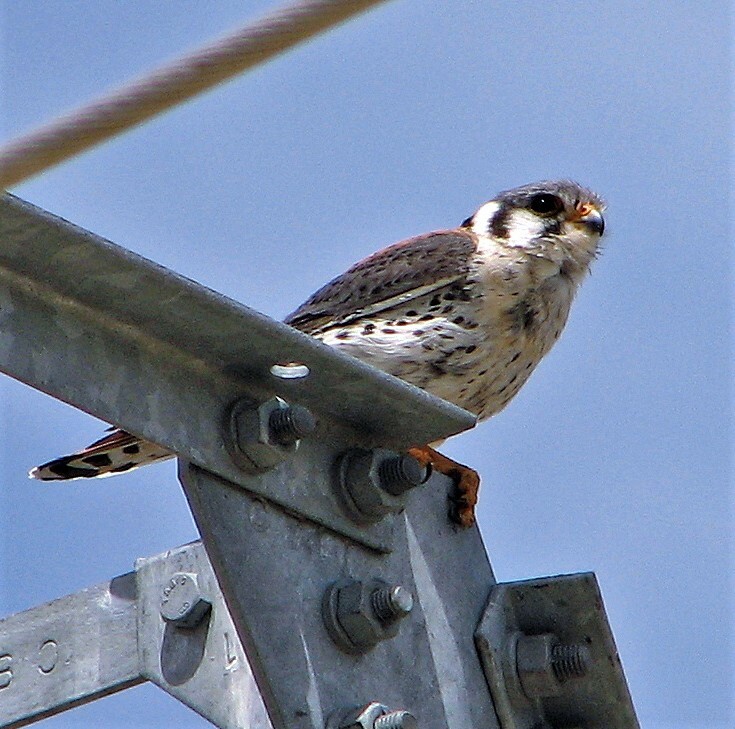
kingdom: Animalia
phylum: Chordata
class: Aves
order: Falconiformes
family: Falconidae
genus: Falco
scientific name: Falco sparverius
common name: American kestrel
